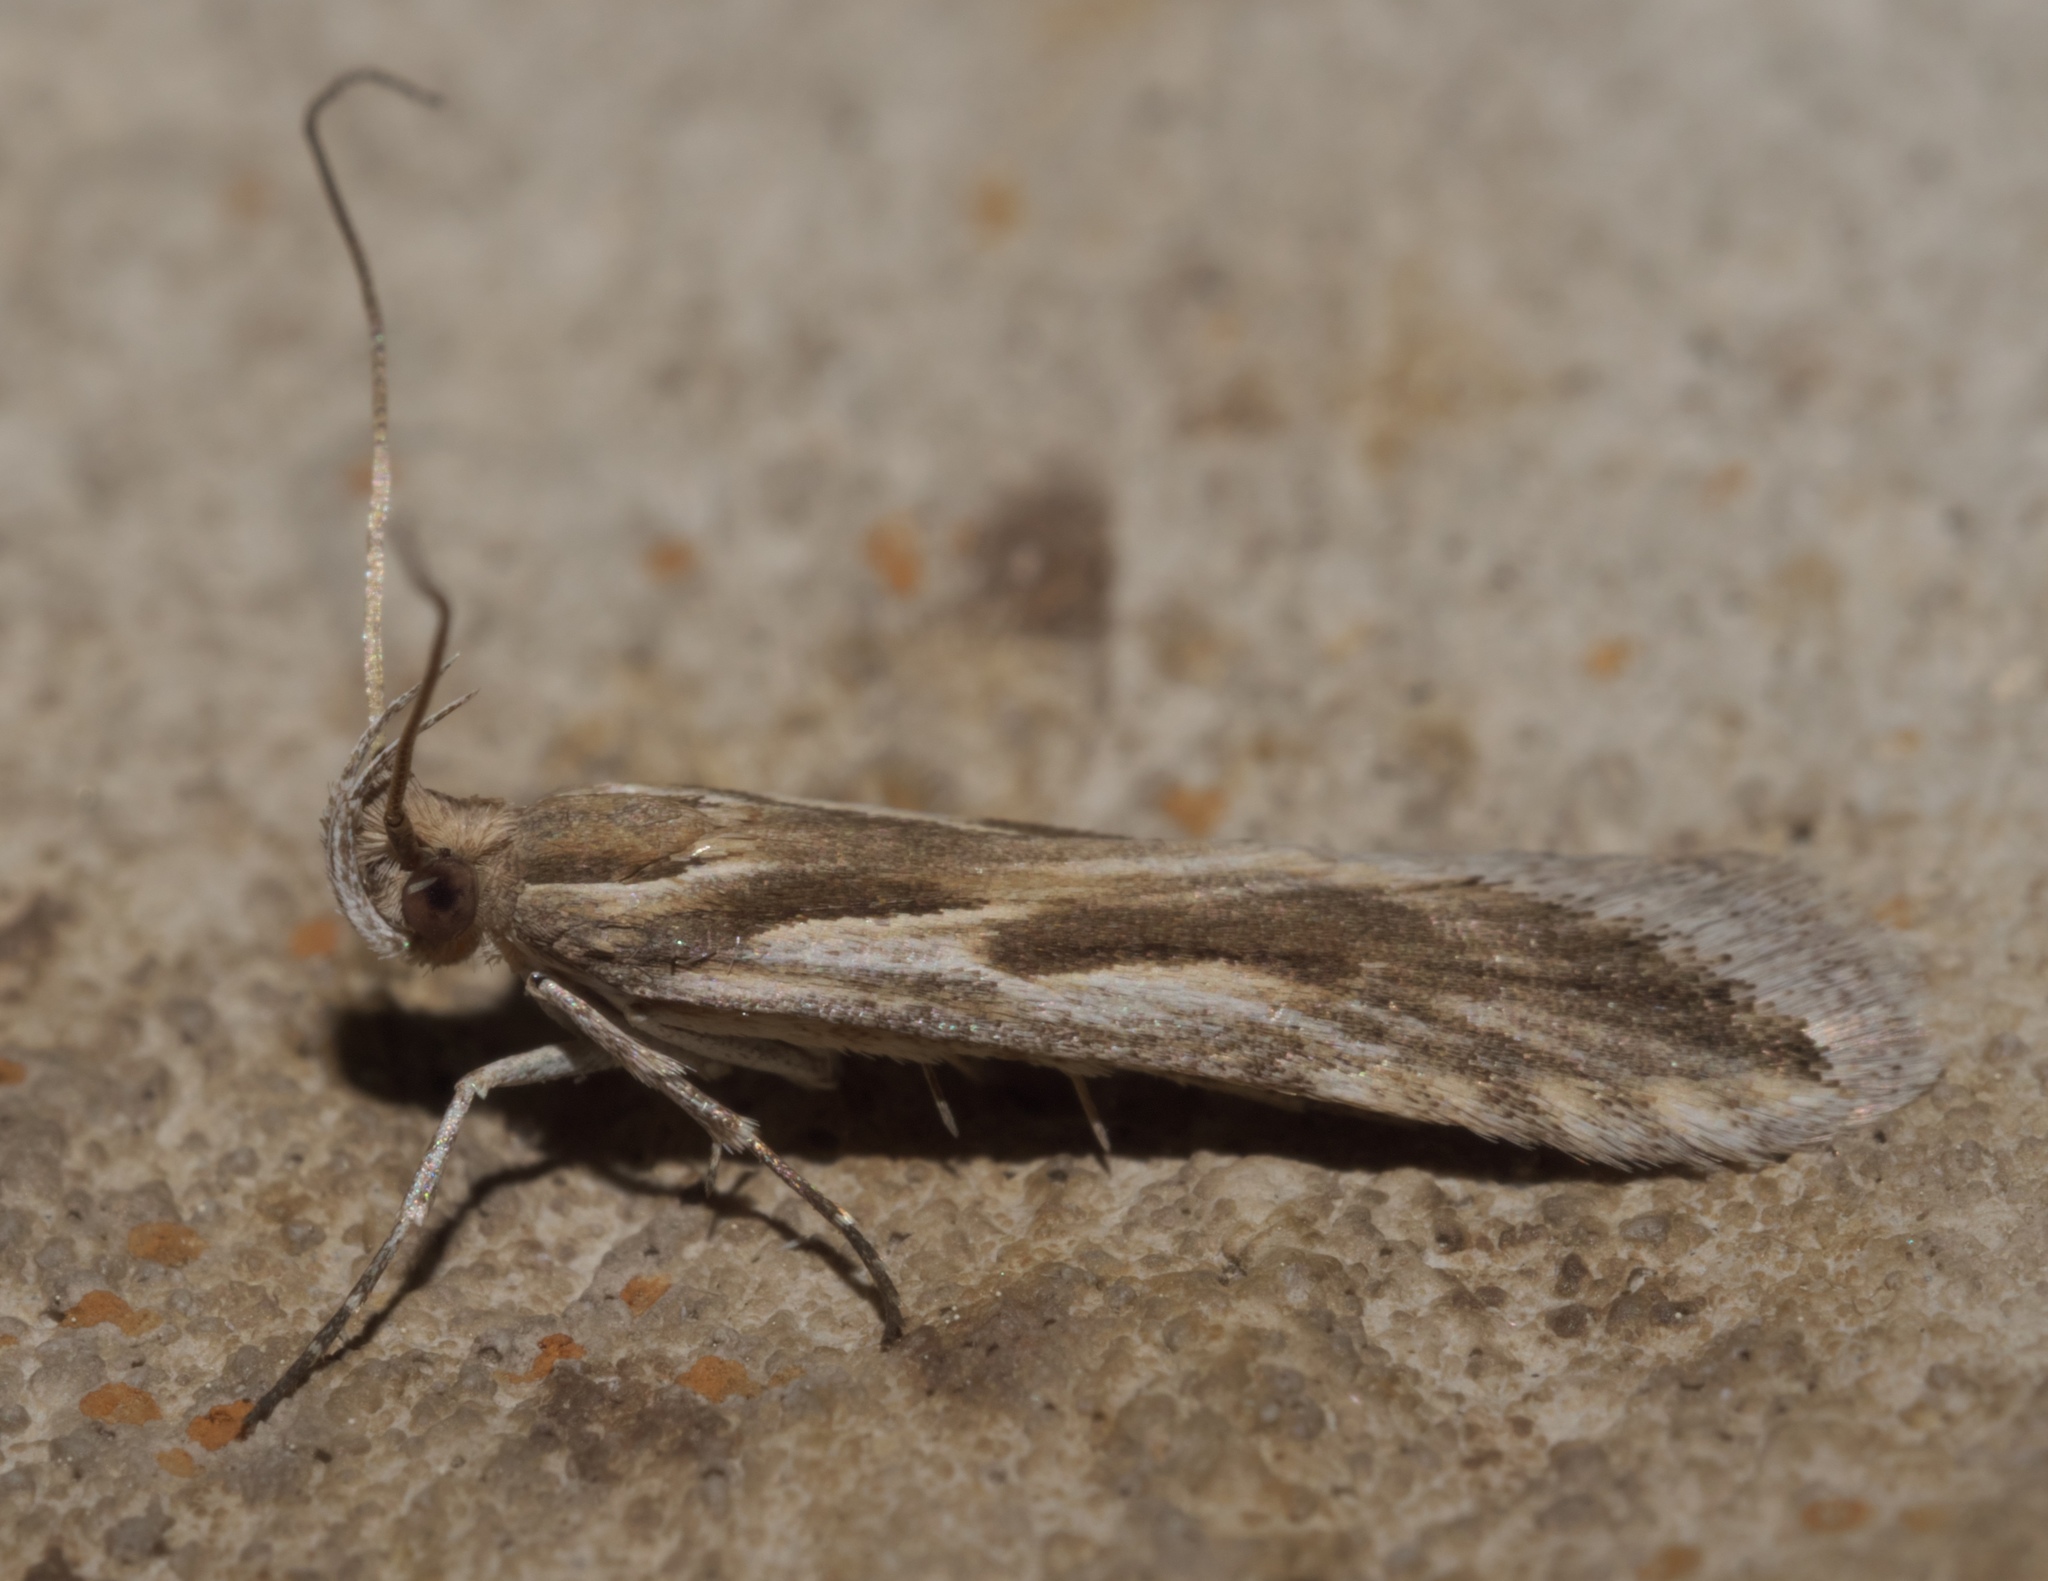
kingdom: Animalia
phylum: Arthropoda
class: Insecta
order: Lepidoptera
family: Gelechiidae
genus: Prolita
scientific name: Prolita jubata
